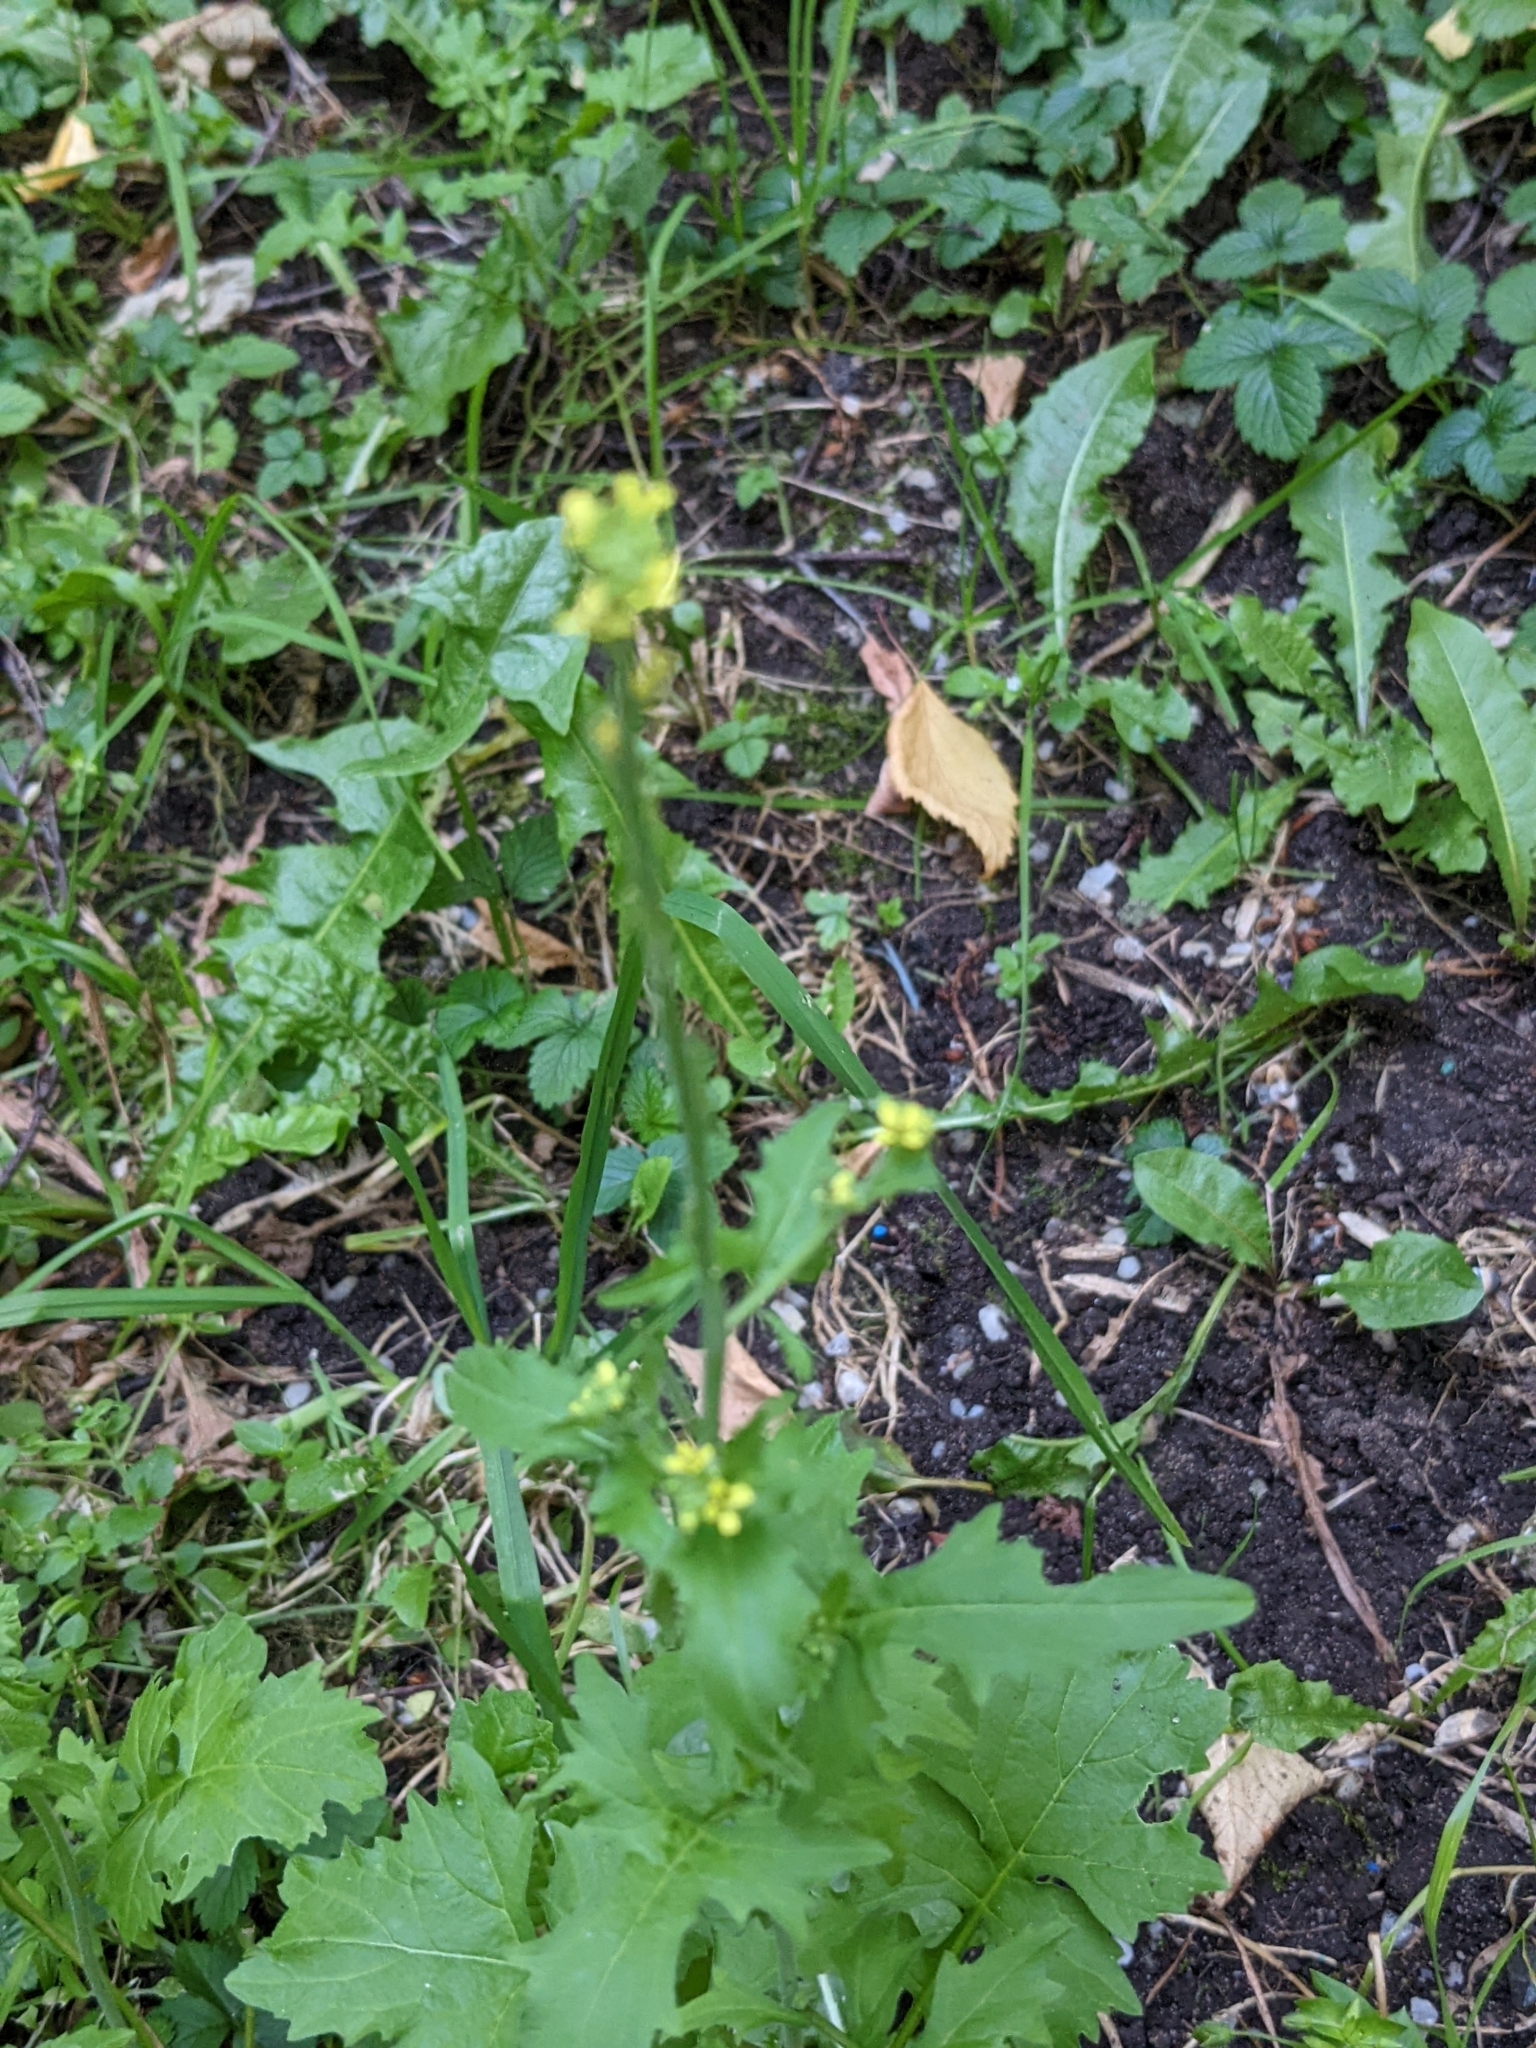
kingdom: Plantae
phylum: Tracheophyta
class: Magnoliopsida
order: Brassicales
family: Brassicaceae
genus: Sisymbrium
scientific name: Sisymbrium officinale
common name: Hedge mustard
